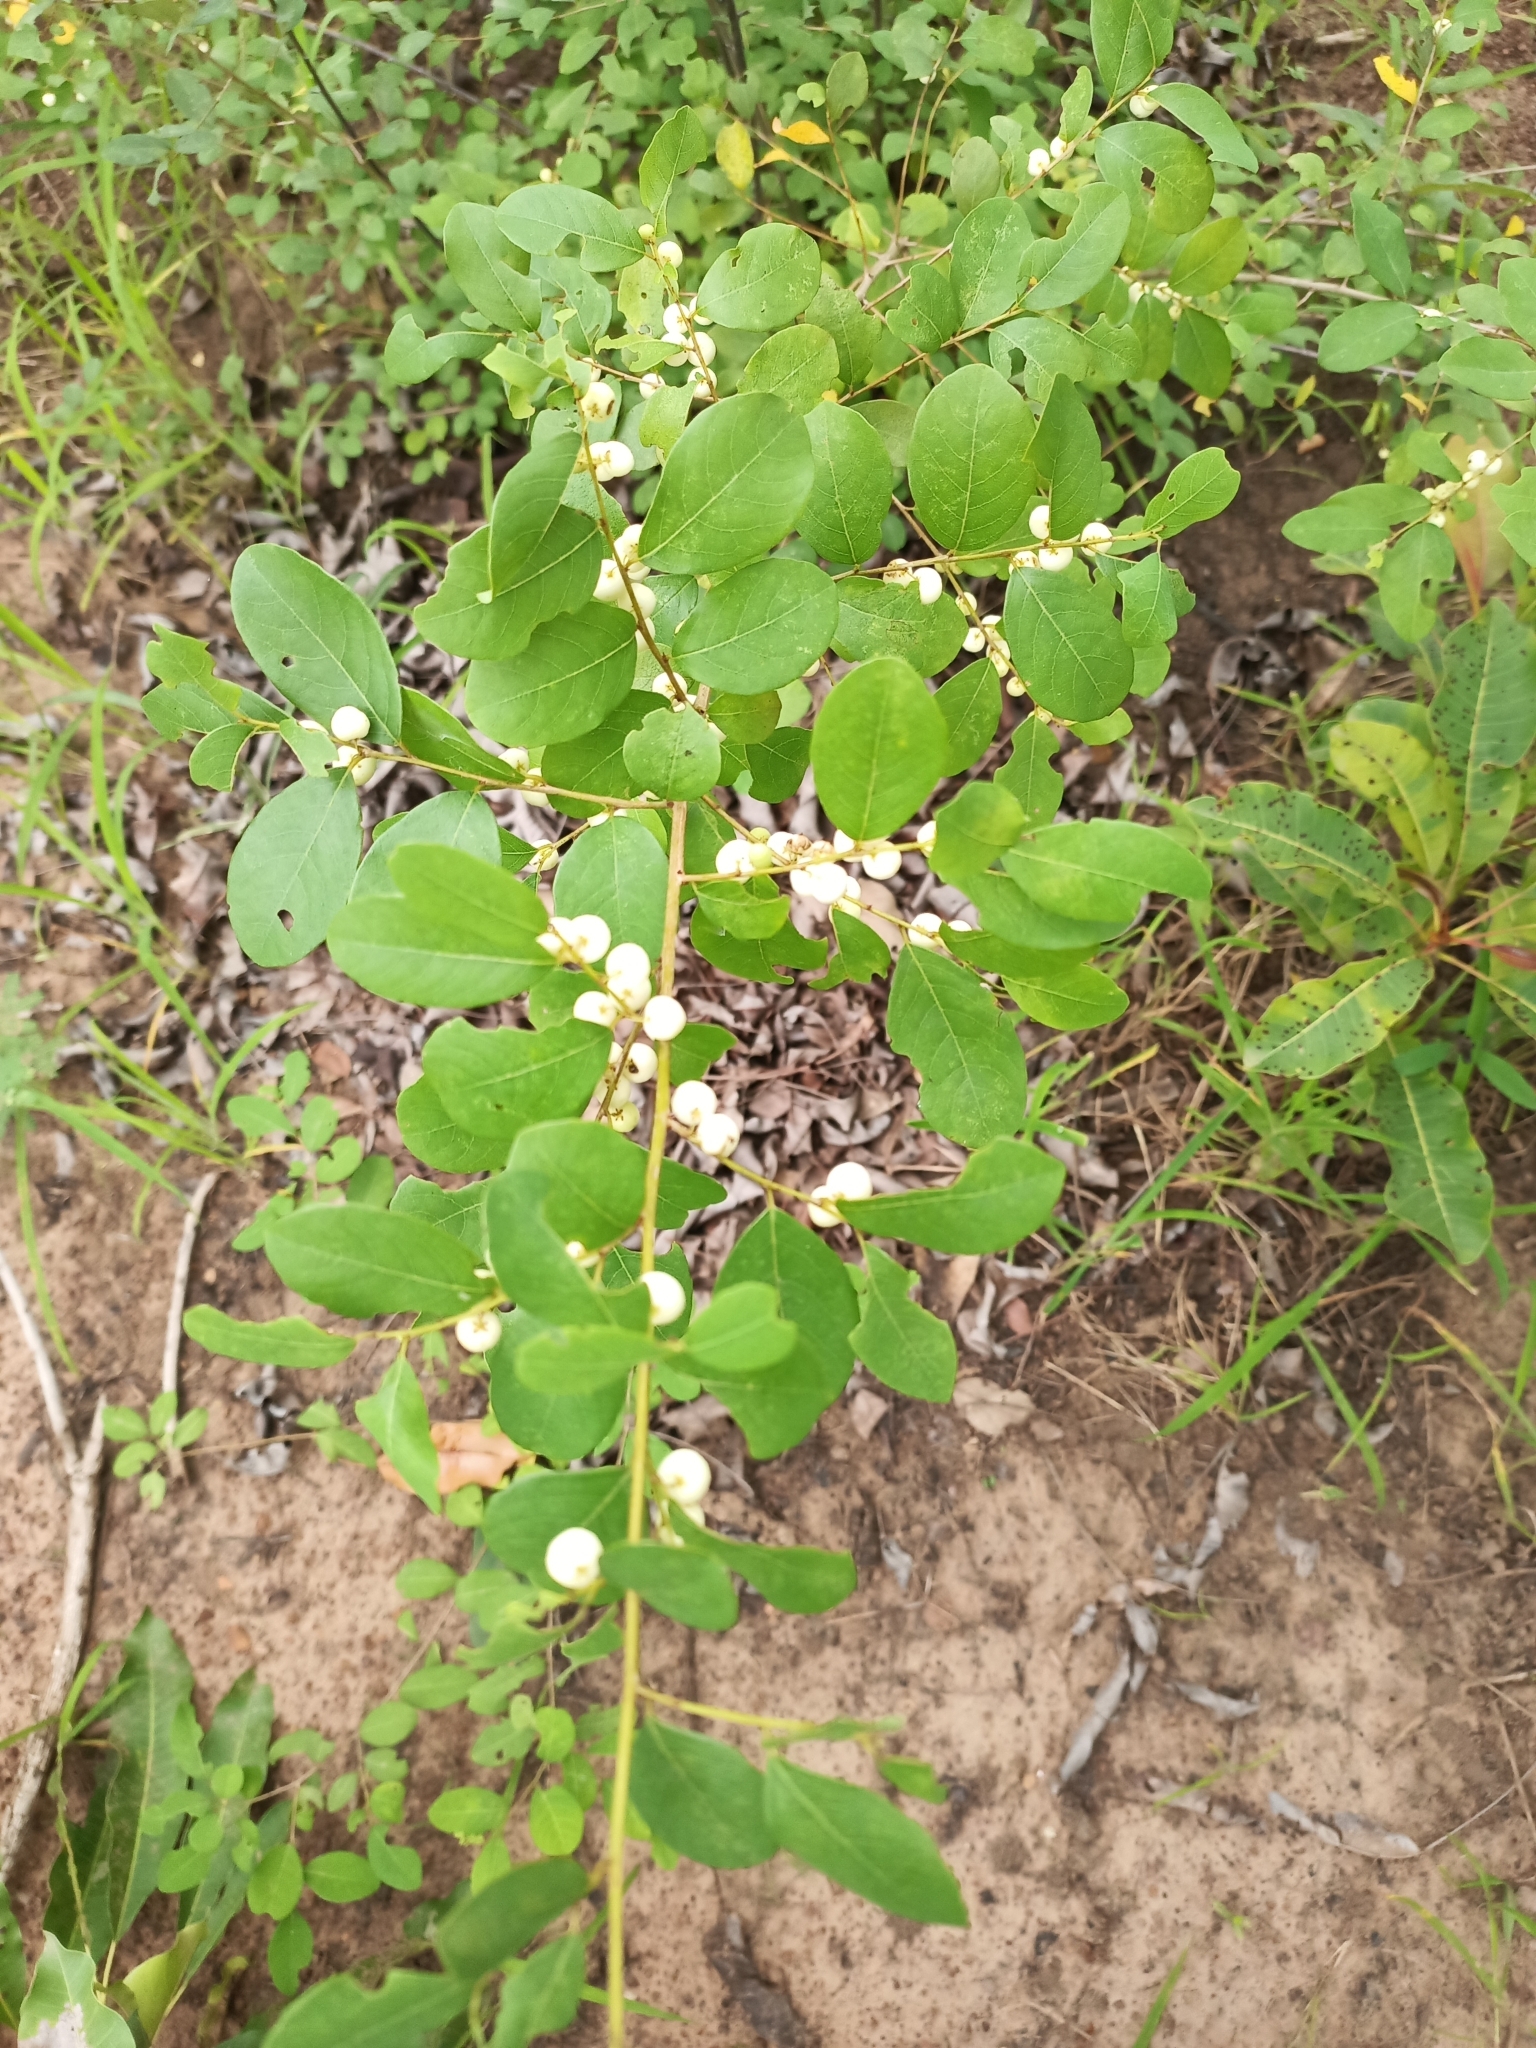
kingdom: Plantae
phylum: Tracheophyta
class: Magnoliopsida
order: Malpighiales
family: Phyllanthaceae
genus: Flueggea
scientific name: Flueggea virosa
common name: Common bushweed
